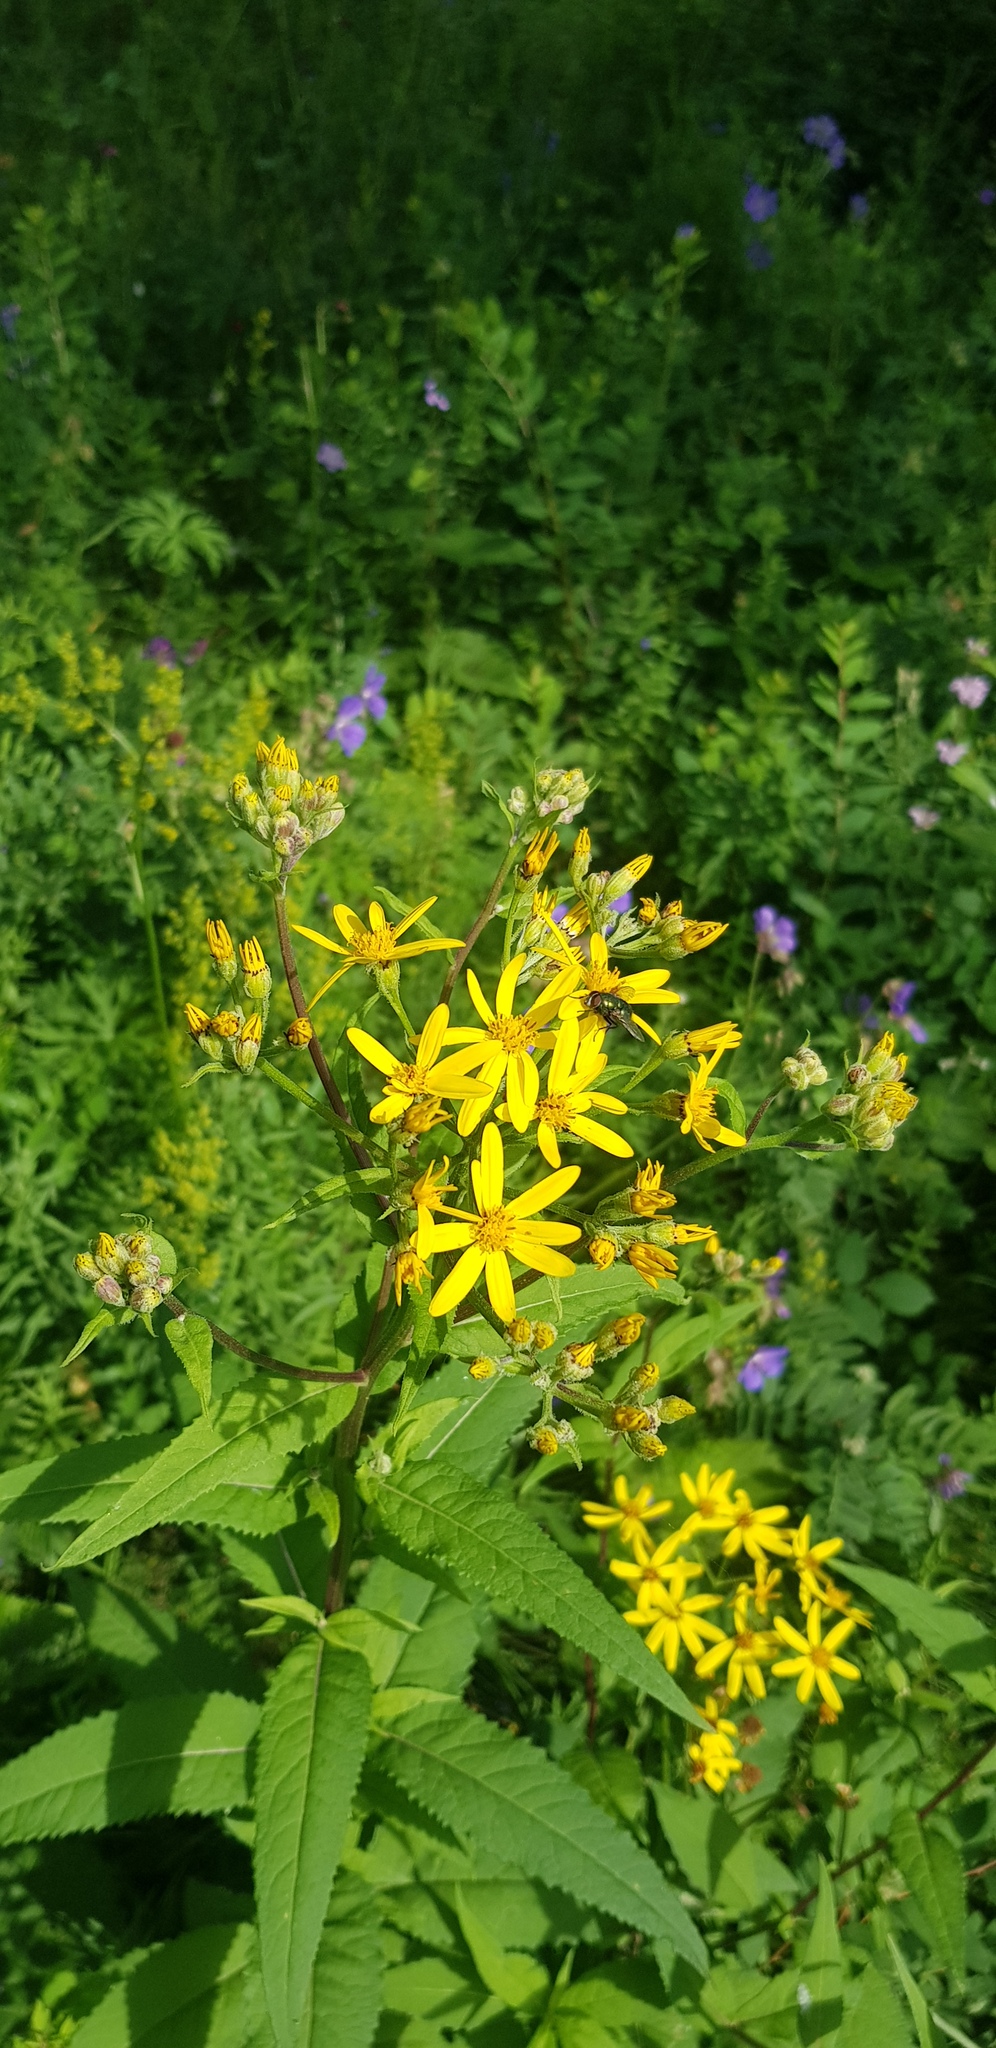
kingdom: Plantae
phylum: Tracheophyta
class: Magnoliopsida
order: Asterales
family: Asteraceae
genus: Senecio
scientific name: Senecio nemorensis
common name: Alpine ragwort
